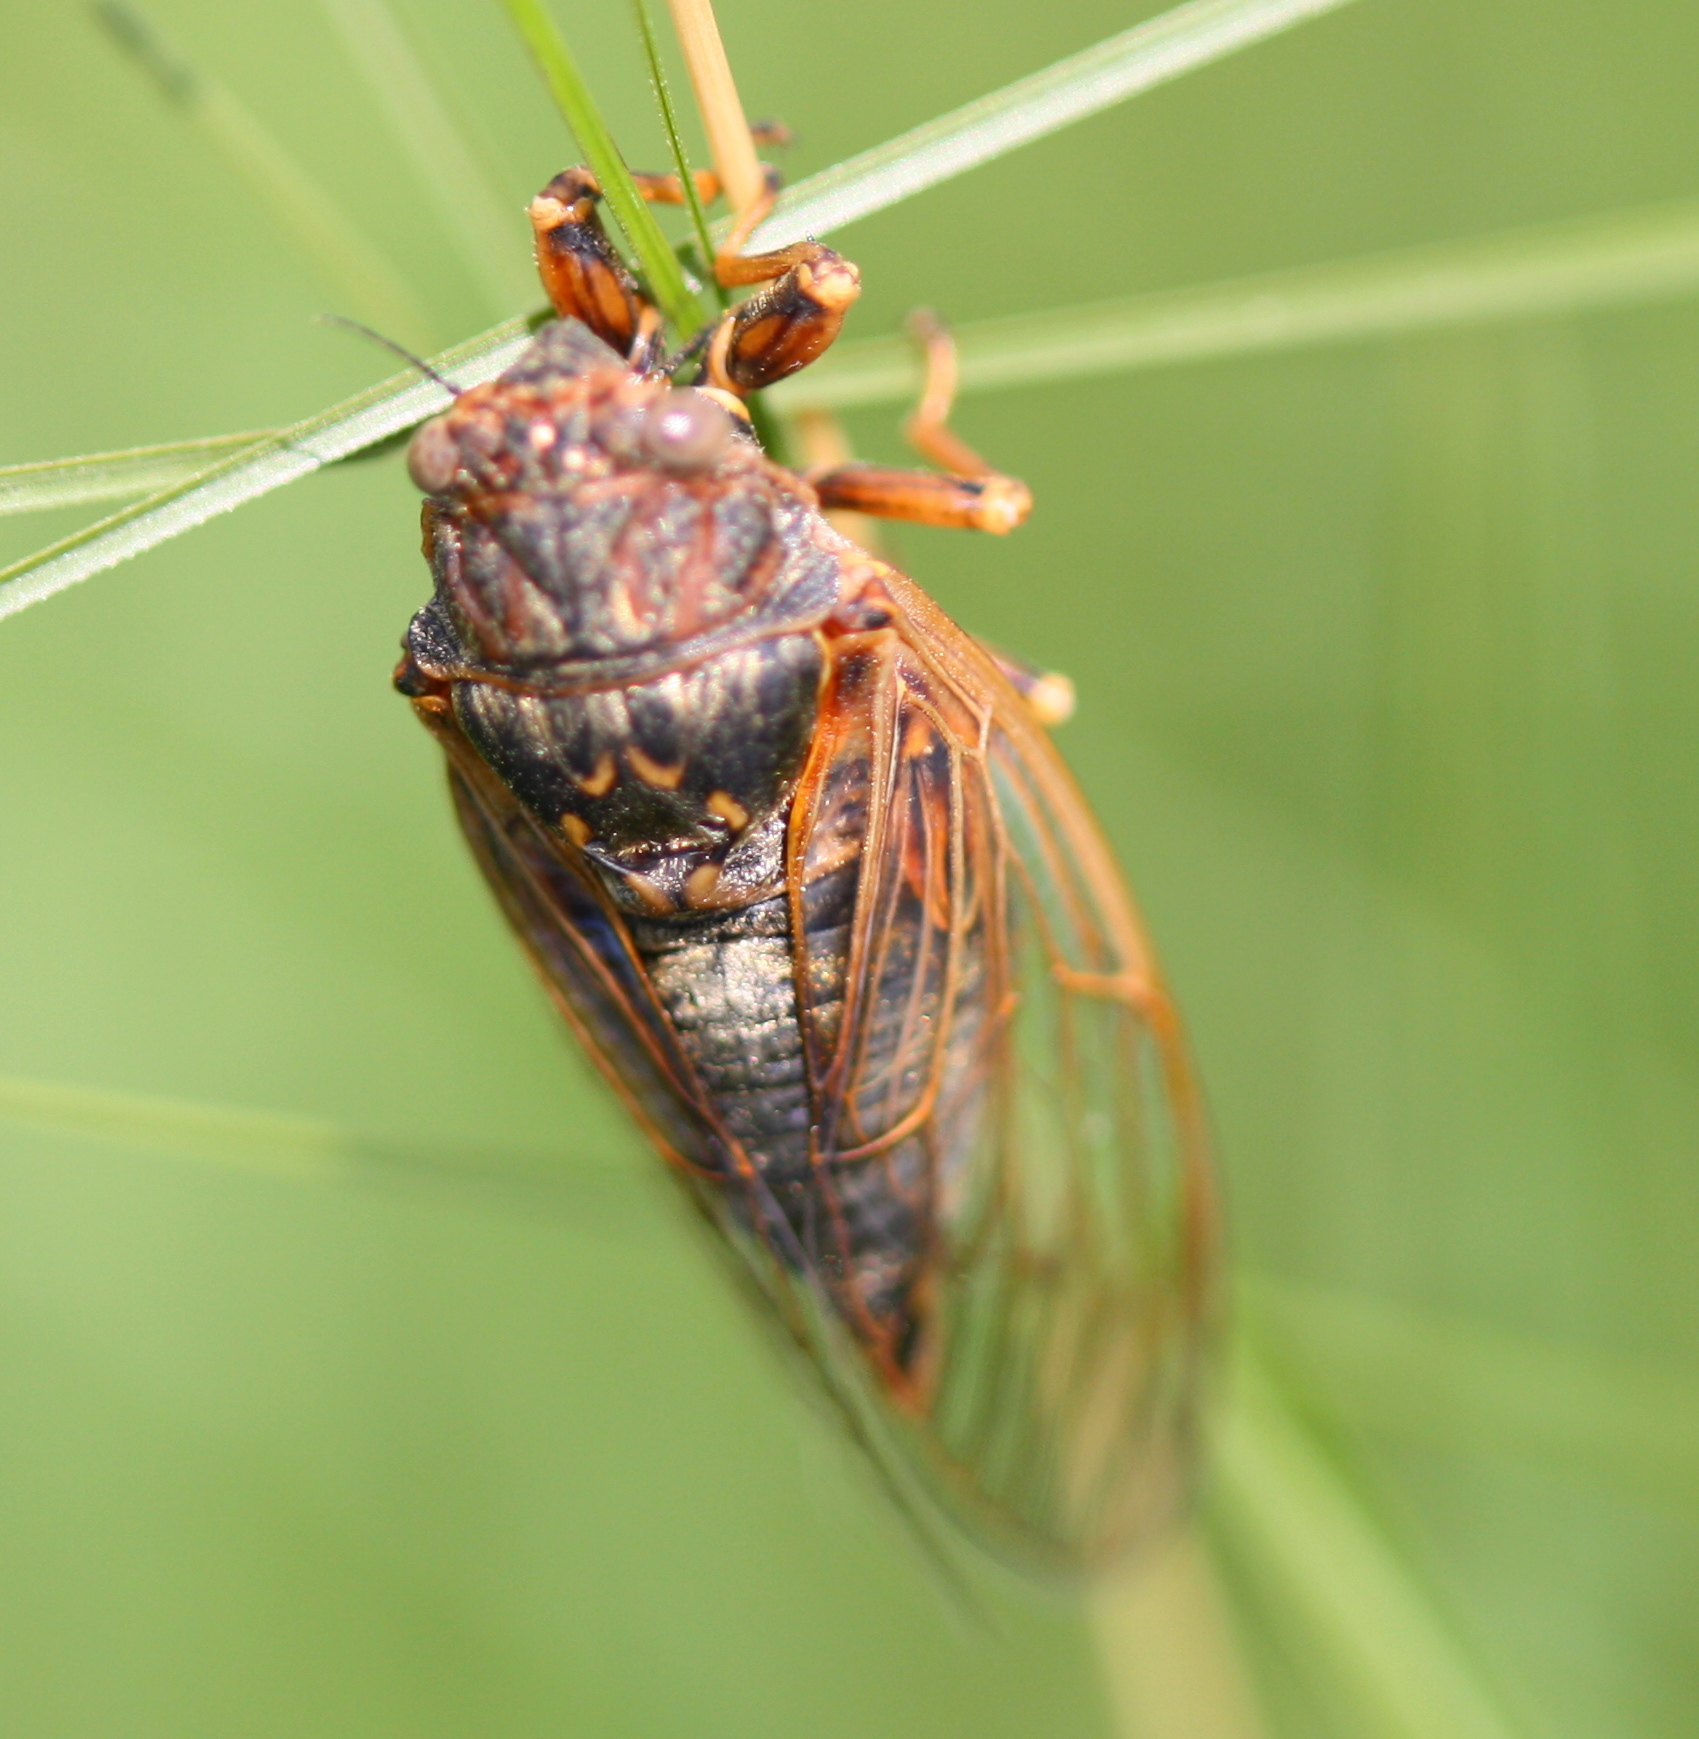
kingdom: Animalia
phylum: Arthropoda
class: Insecta
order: Hemiptera
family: Cicadidae
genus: Okanagana
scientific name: Okanagana balli
